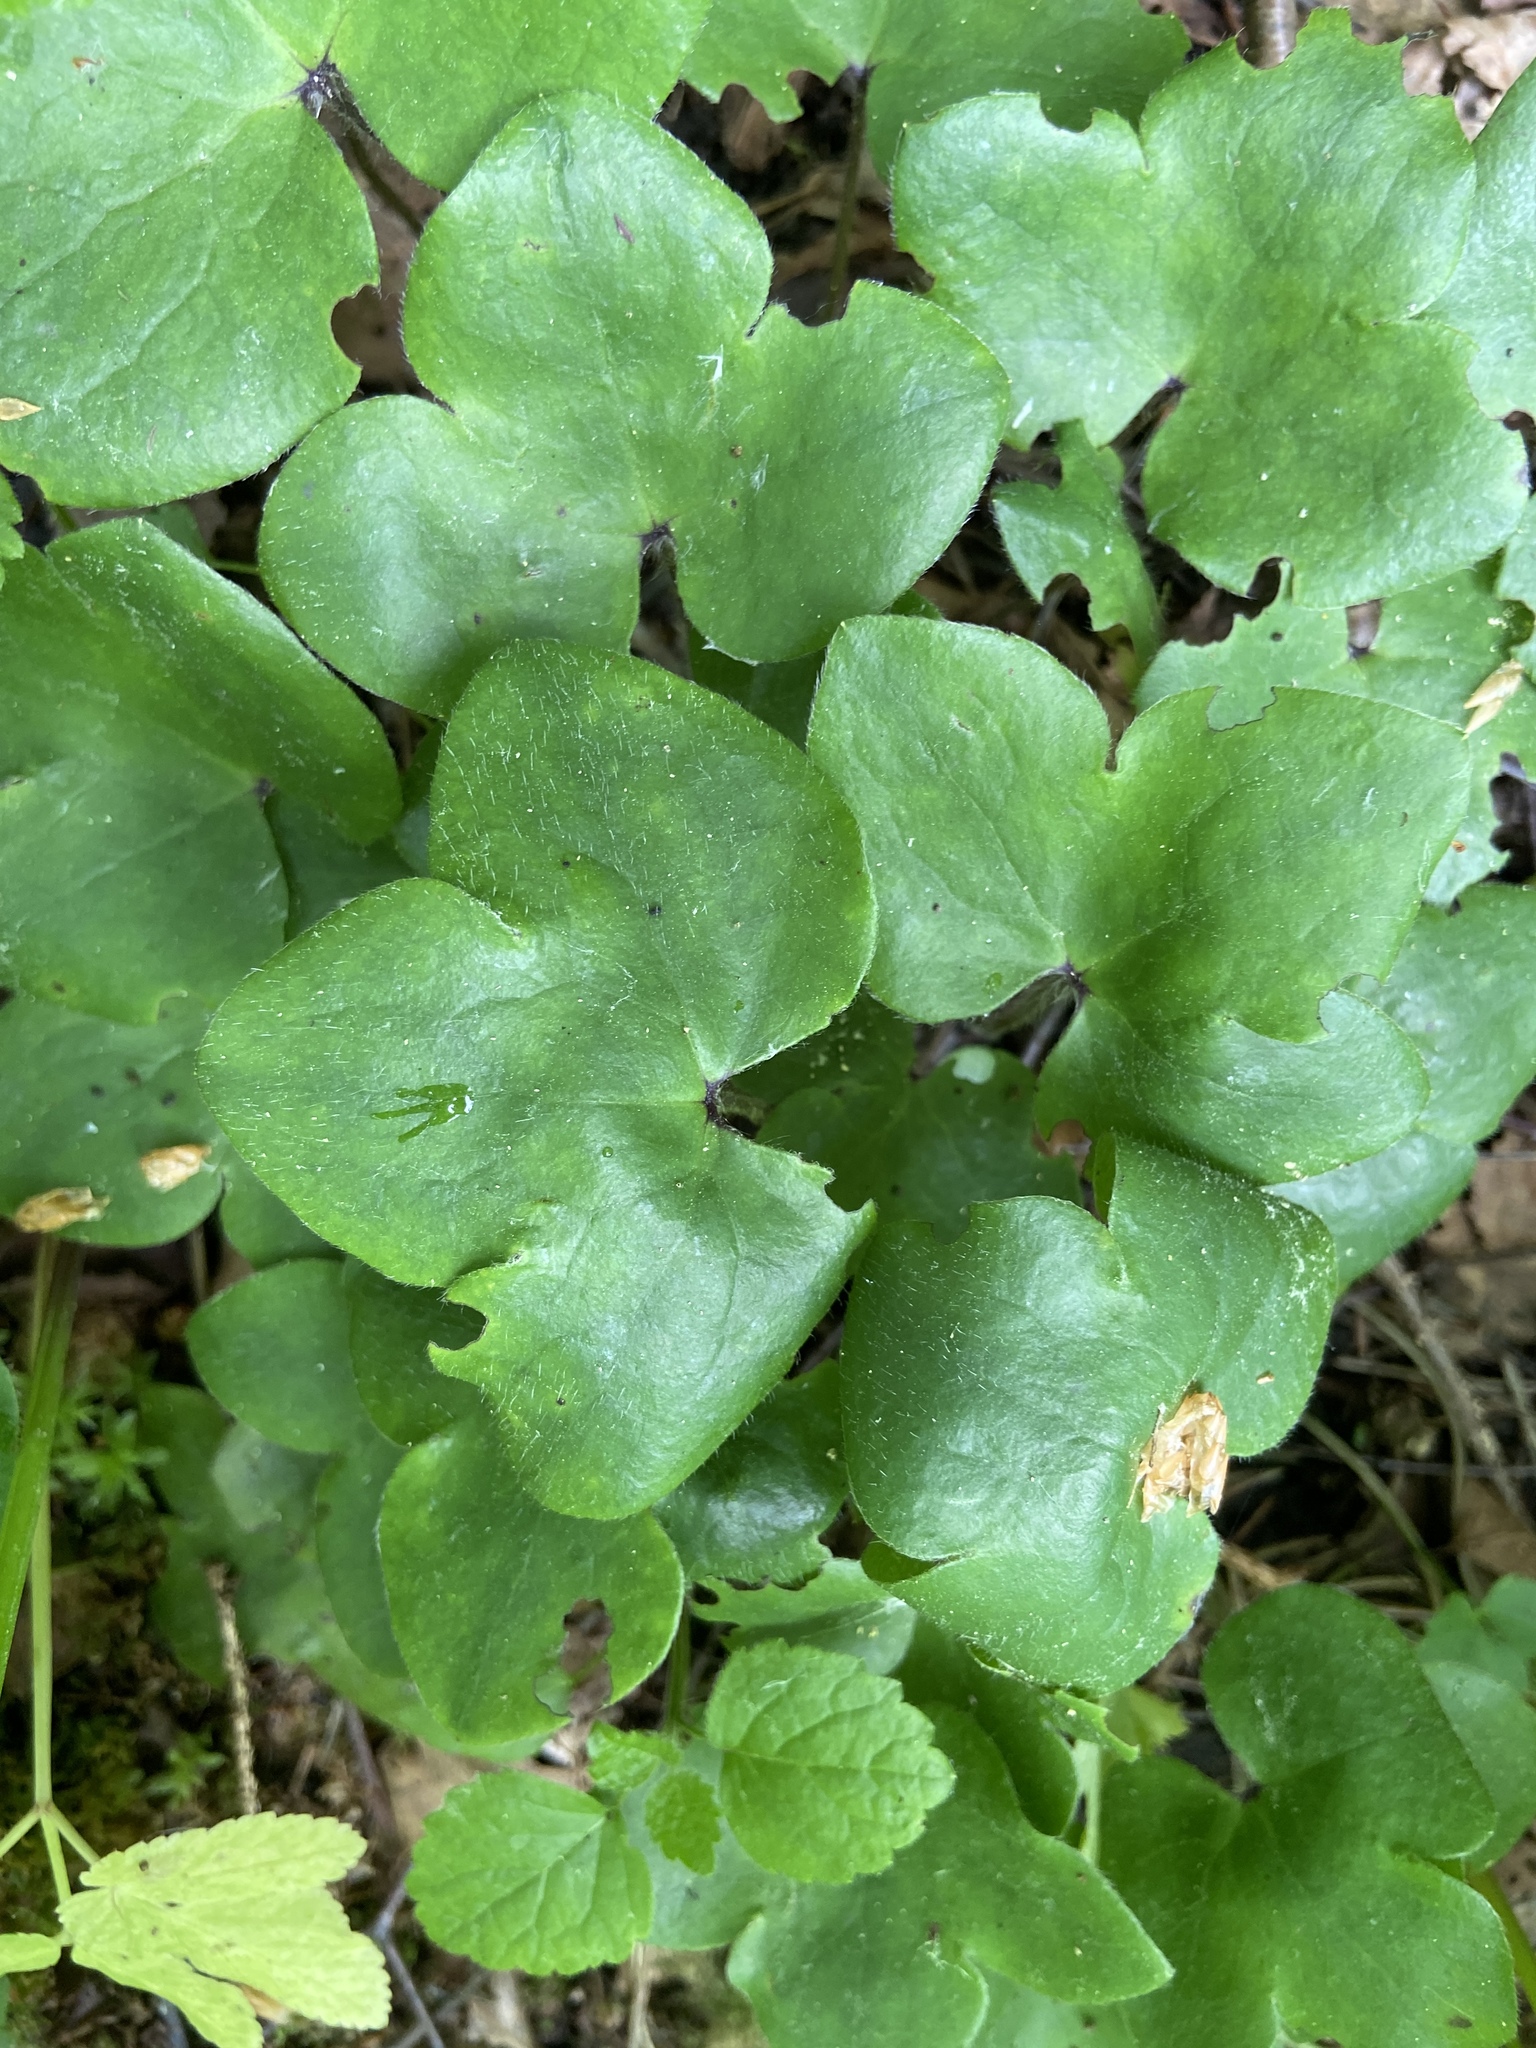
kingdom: Plantae
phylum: Tracheophyta
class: Magnoliopsida
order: Ranunculales
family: Ranunculaceae
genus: Hepatica
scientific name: Hepatica nobilis
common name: Liverleaf
